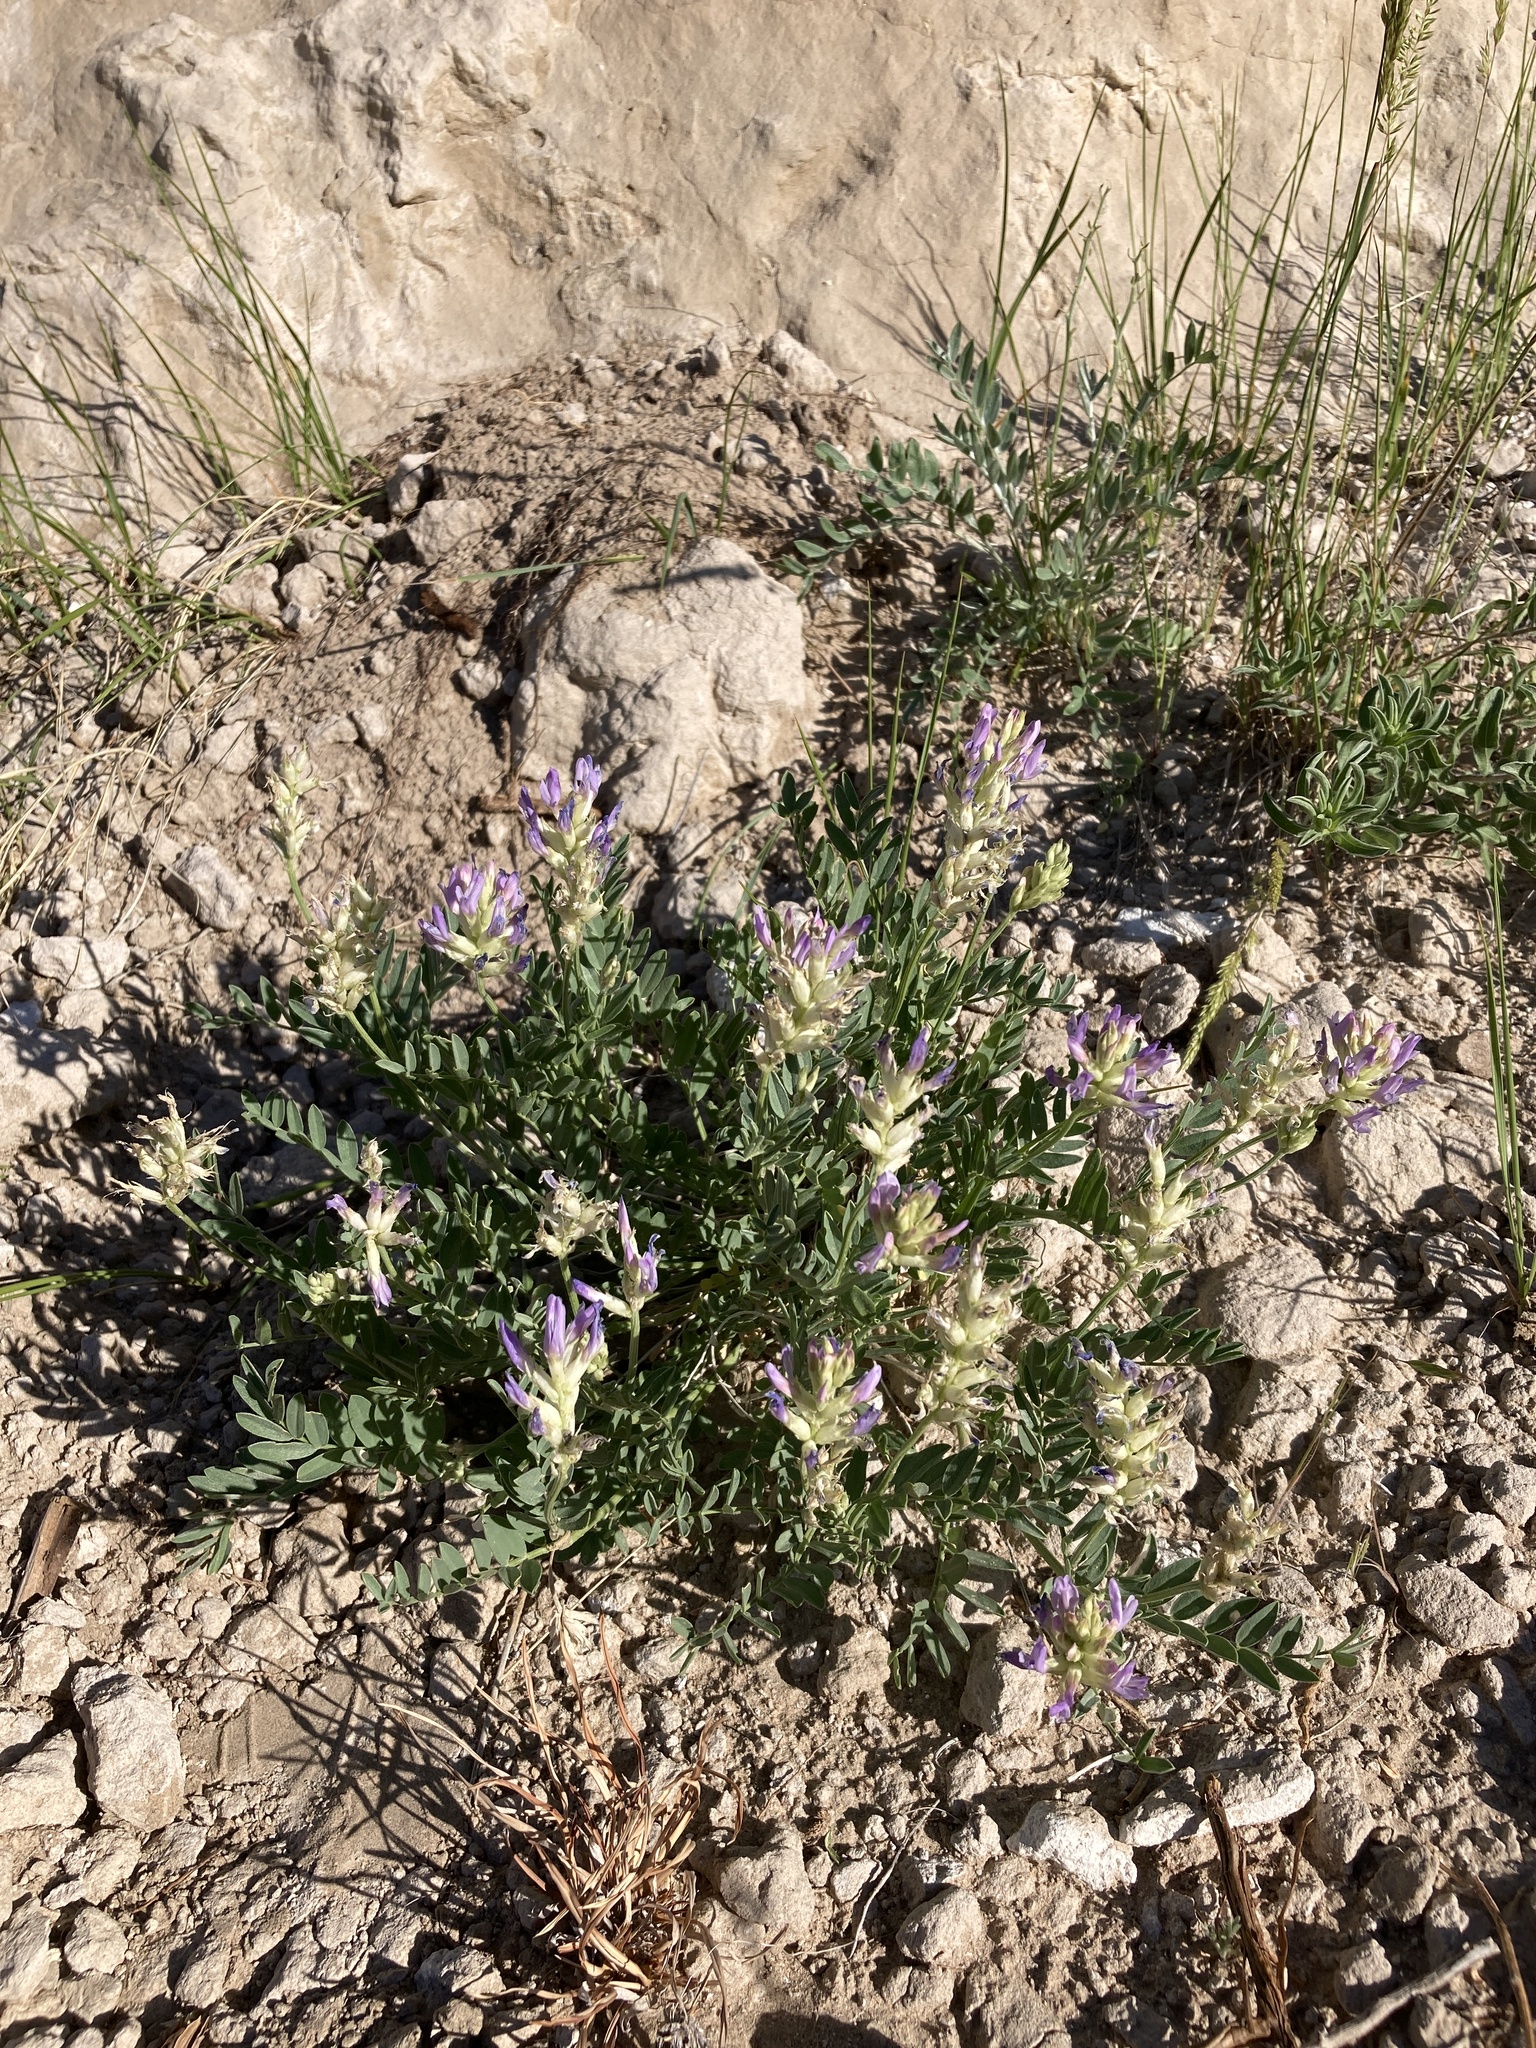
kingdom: Plantae
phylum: Tracheophyta
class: Magnoliopsida
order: Fabales
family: Fabaceae
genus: Astragalus
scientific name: Astragalus laxmannii
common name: Laxmann's milk-vetch
